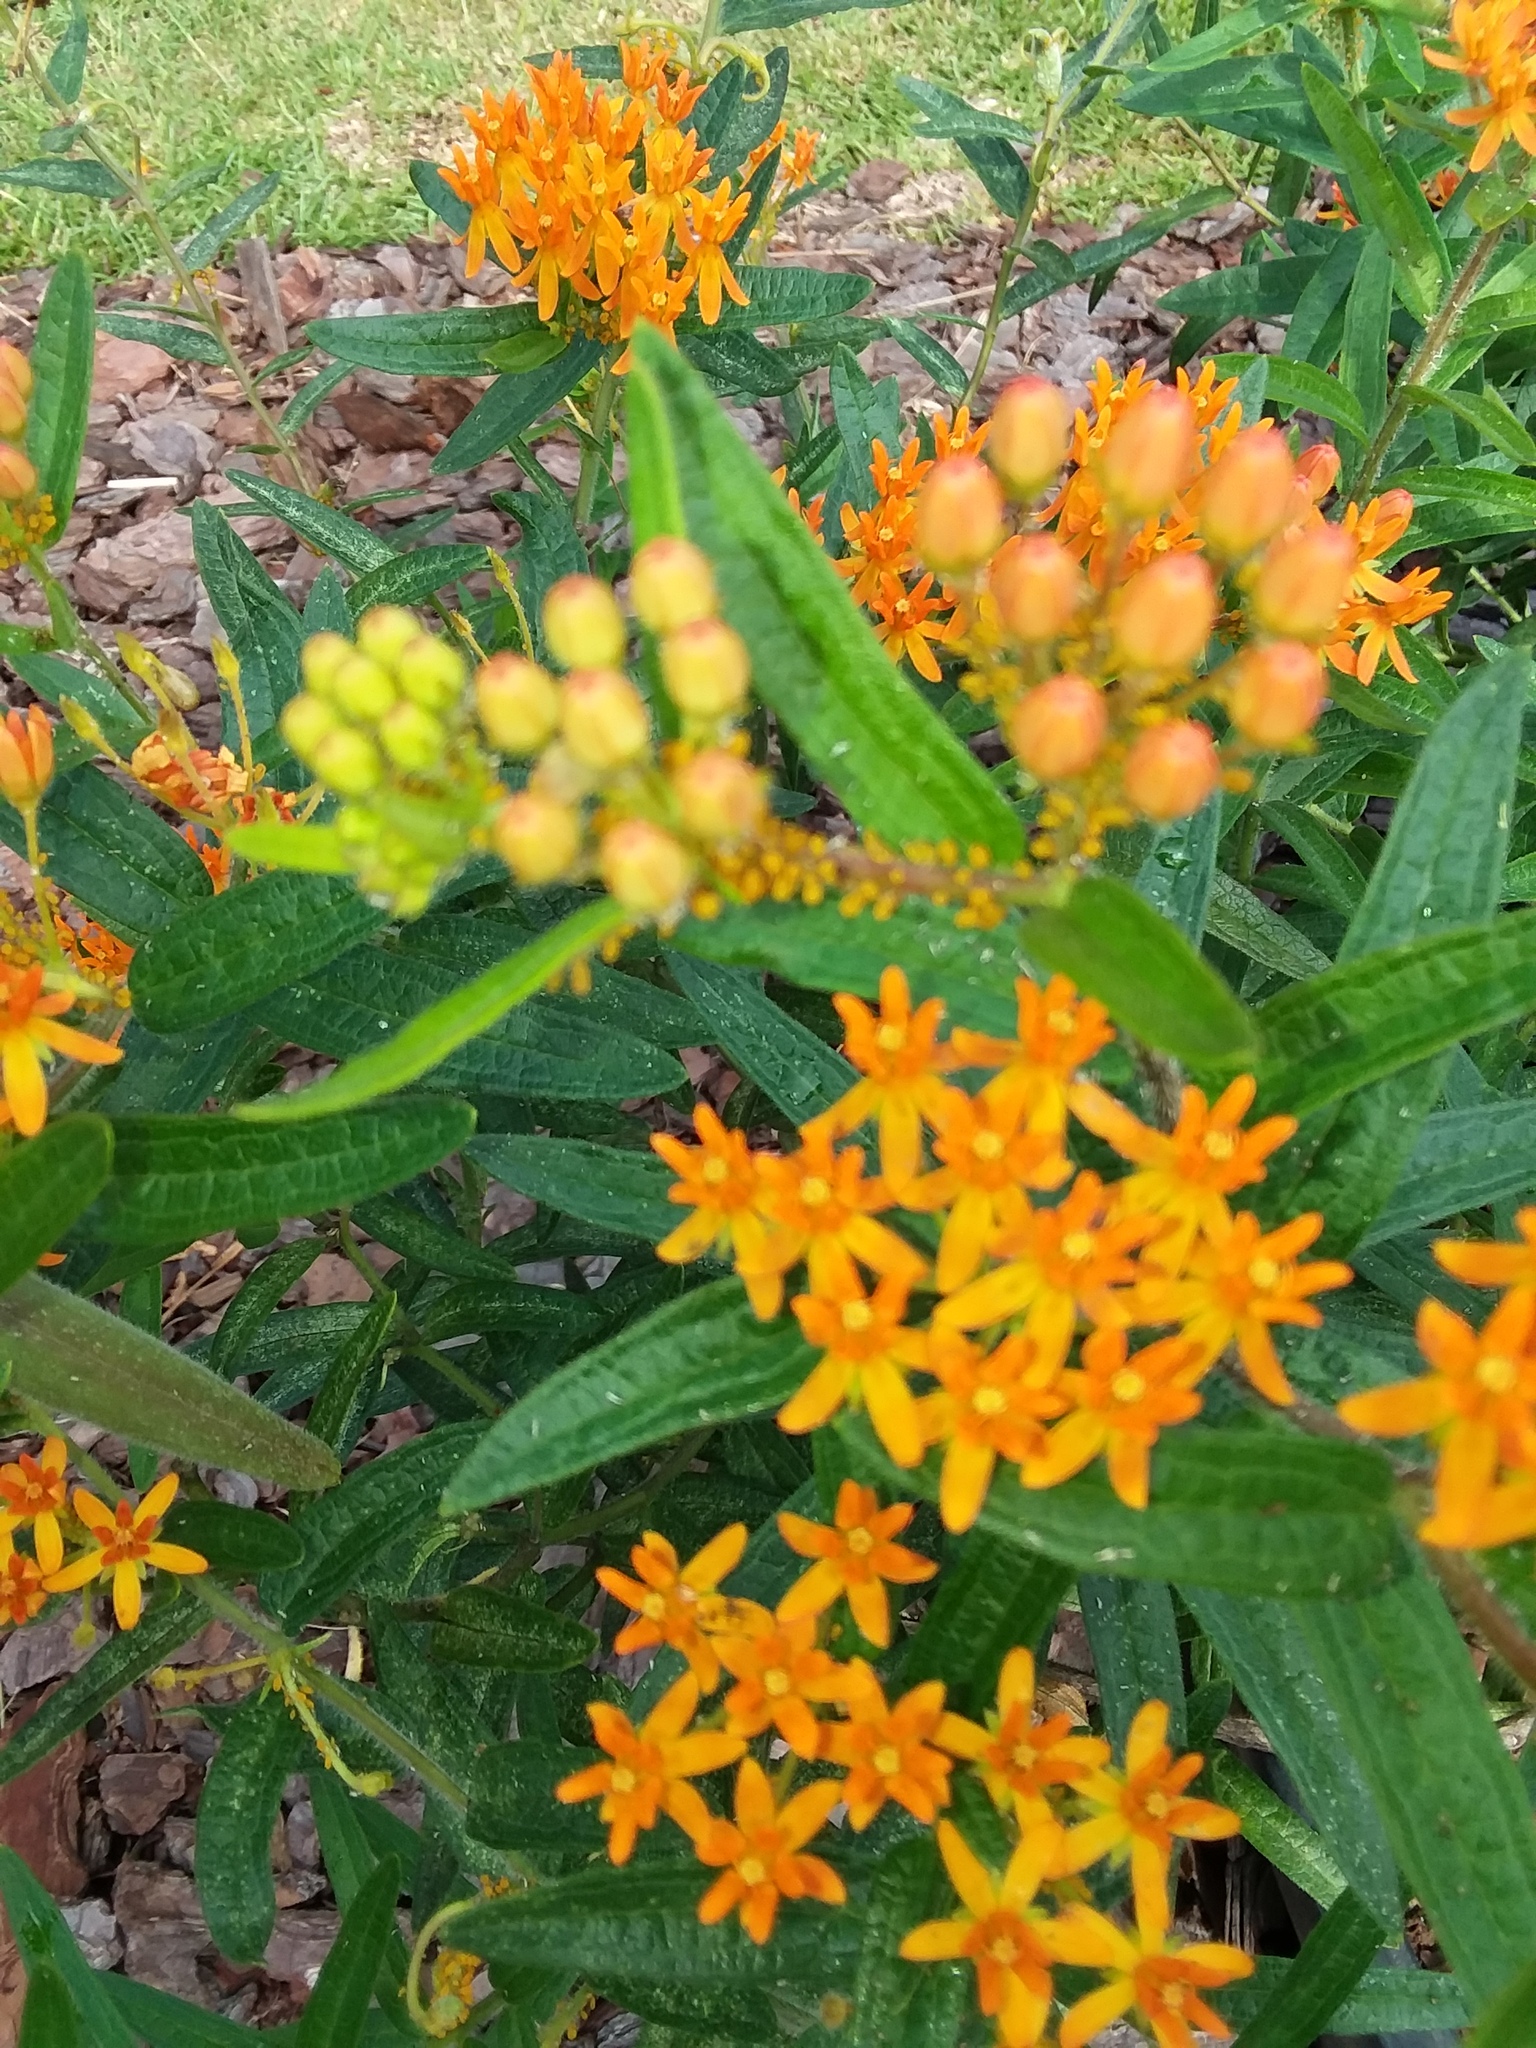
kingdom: Animalia
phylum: Arthropoda
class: Insecta
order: Hemiptera
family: Aphididae
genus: Aphis
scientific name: Aphis nerii
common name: Oleander aphid
